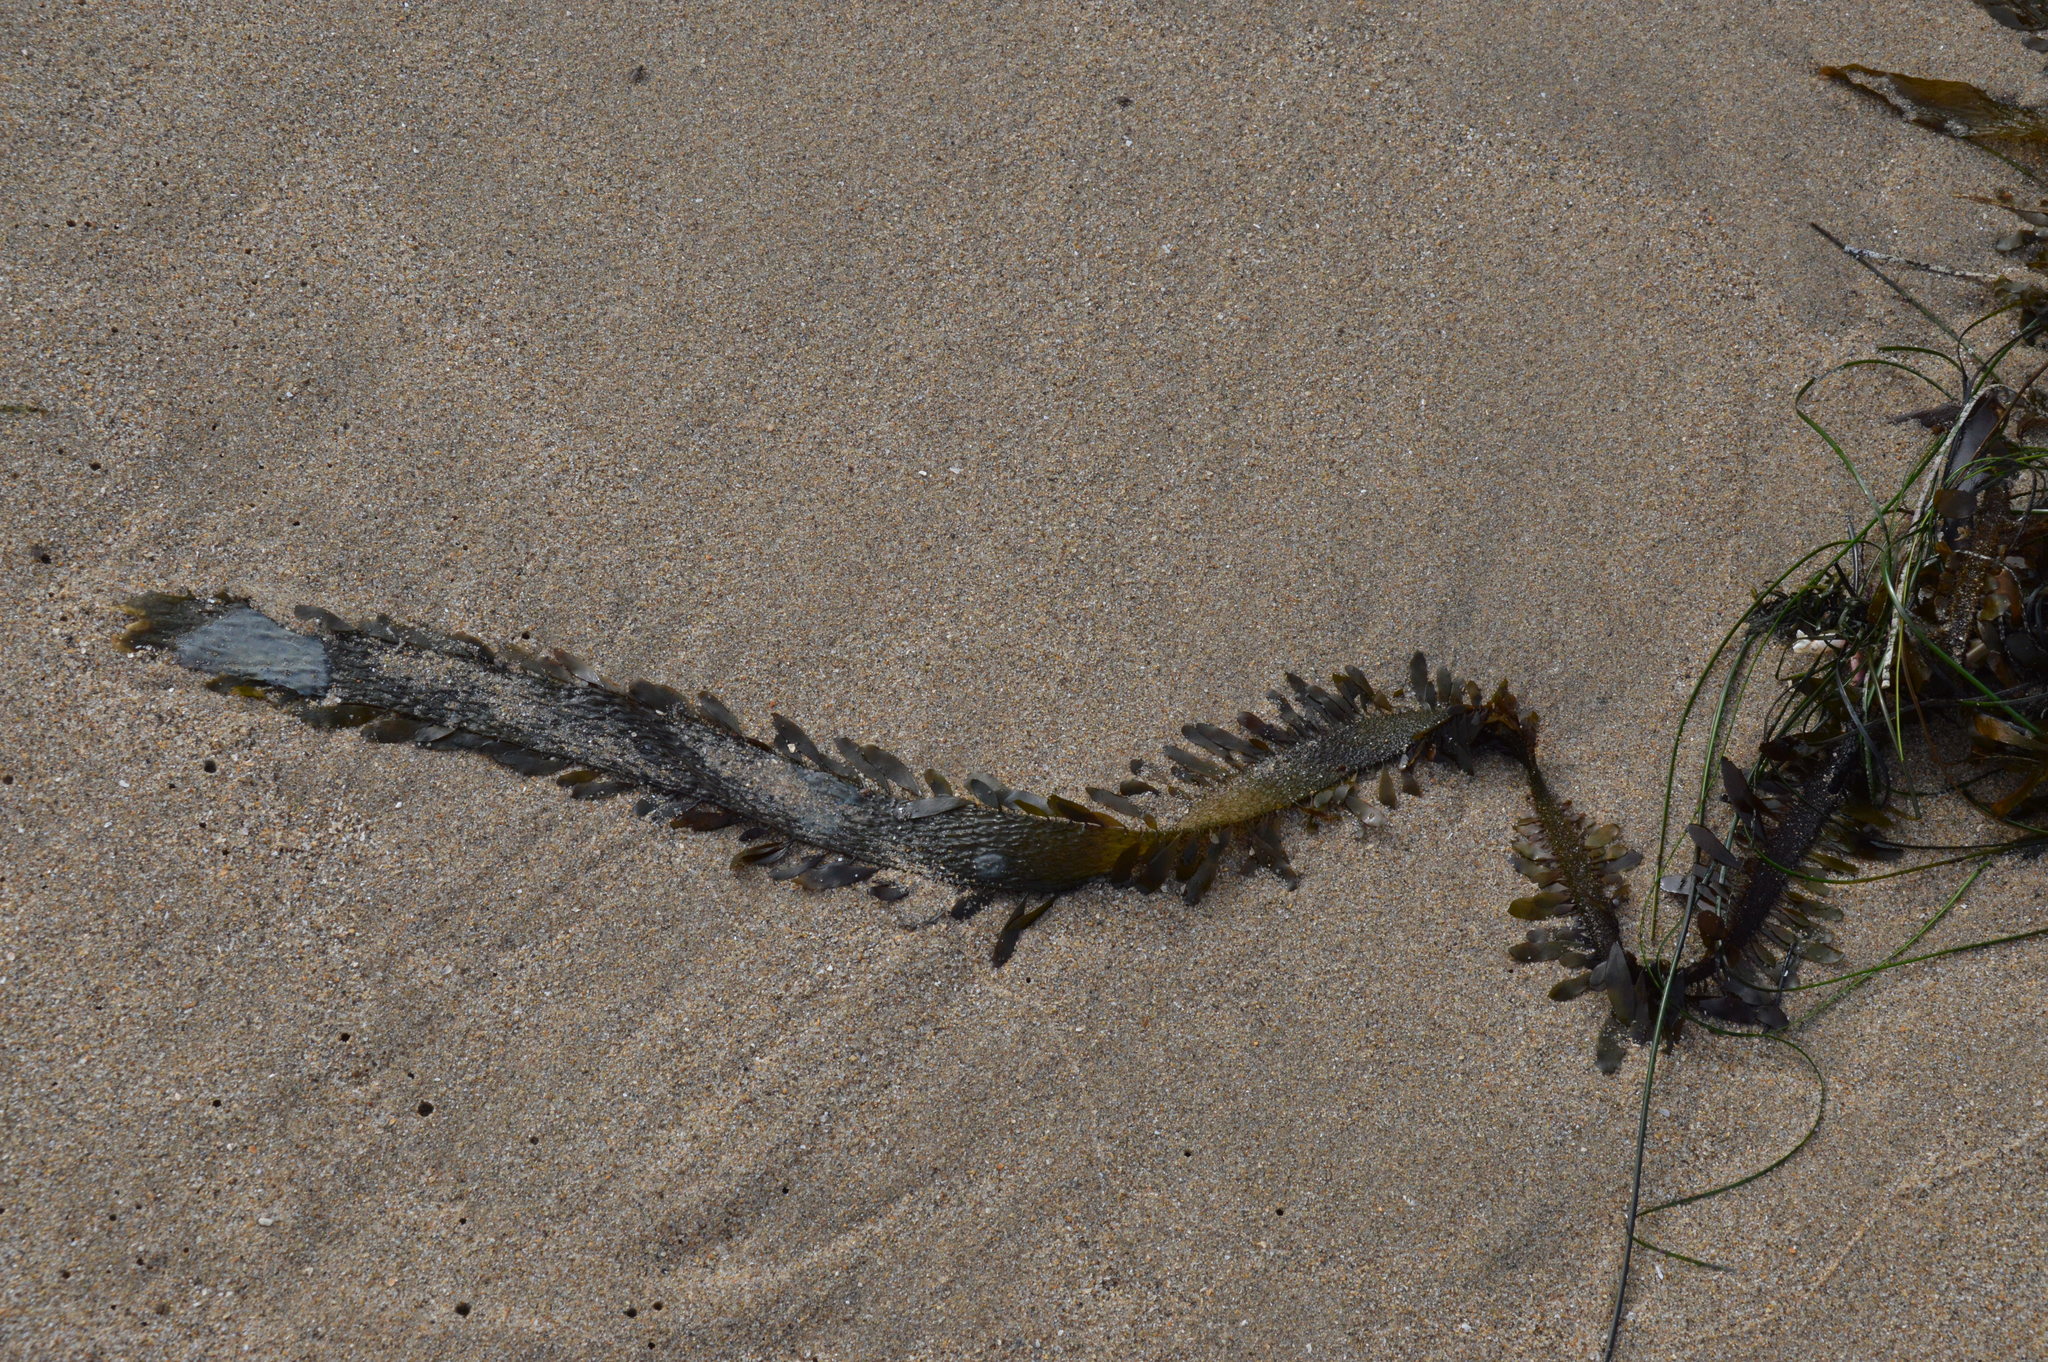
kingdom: Chromista
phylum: Ochrophyta
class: Phaeophyceae
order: Laminariales
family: Lessoniaceae
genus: Egregia
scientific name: Egregia menziesii
